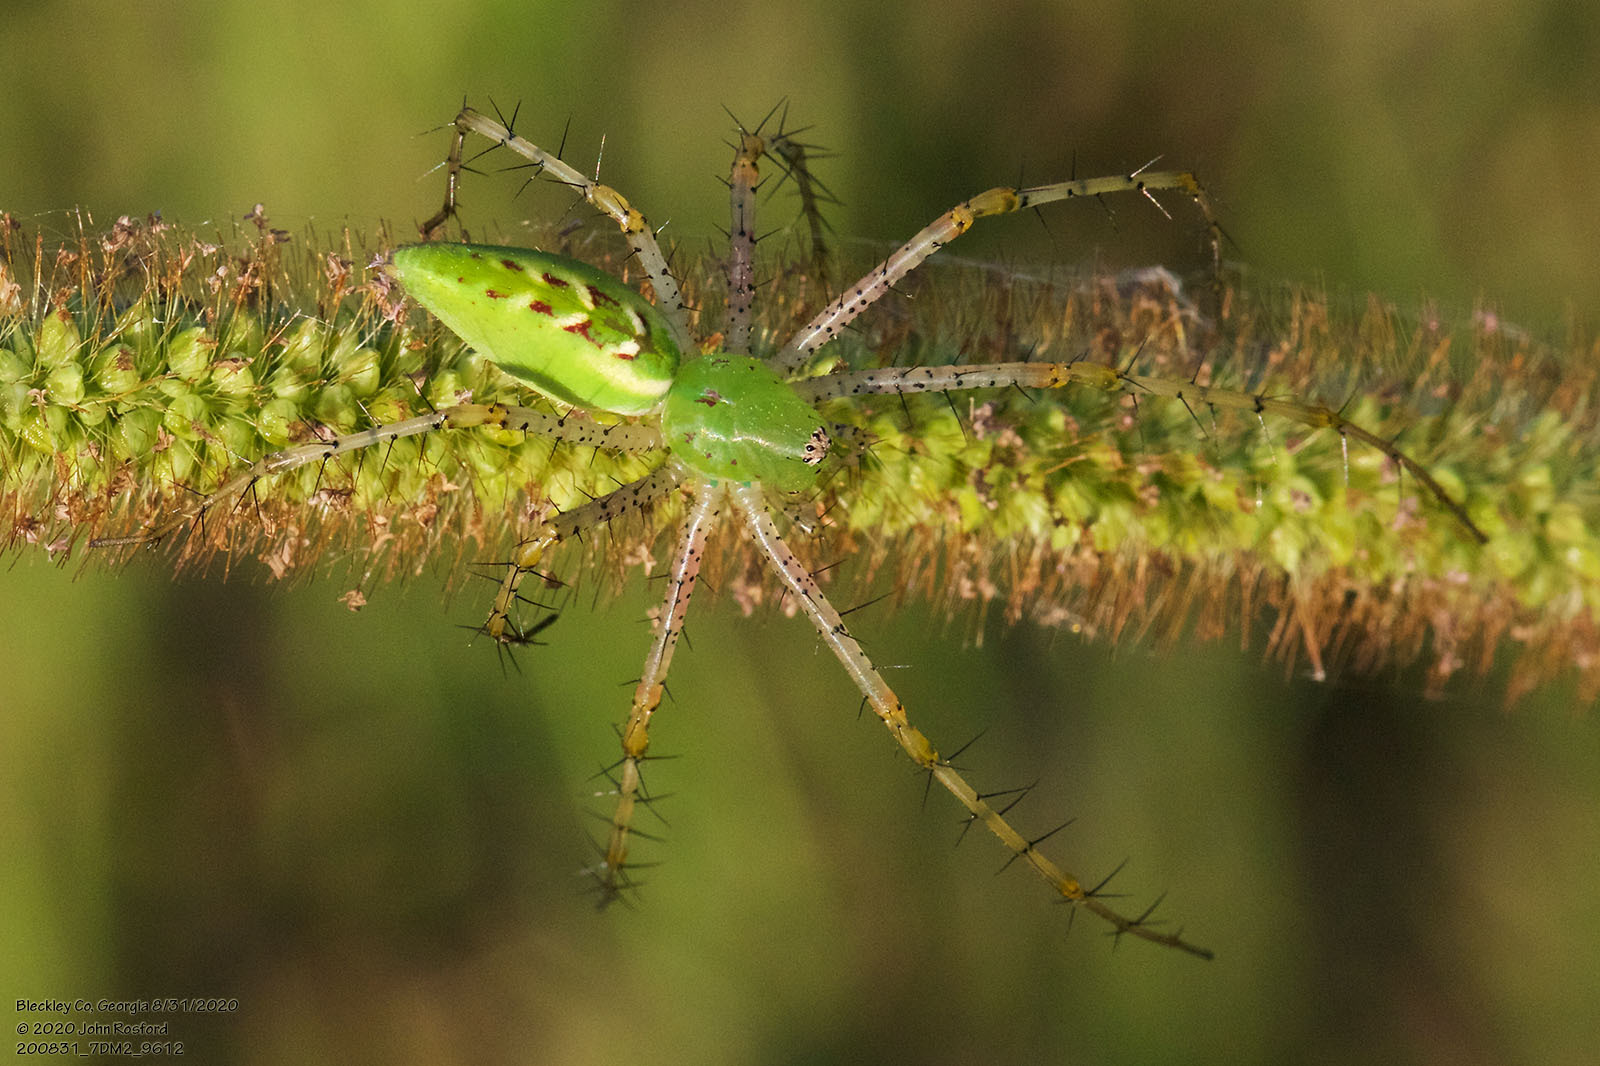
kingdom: Animalia
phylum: Arthropoda
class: Arachnida
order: Araneae
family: Oxyopidae
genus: Peucetia
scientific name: Peucetia viridans
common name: Lynx spiders
